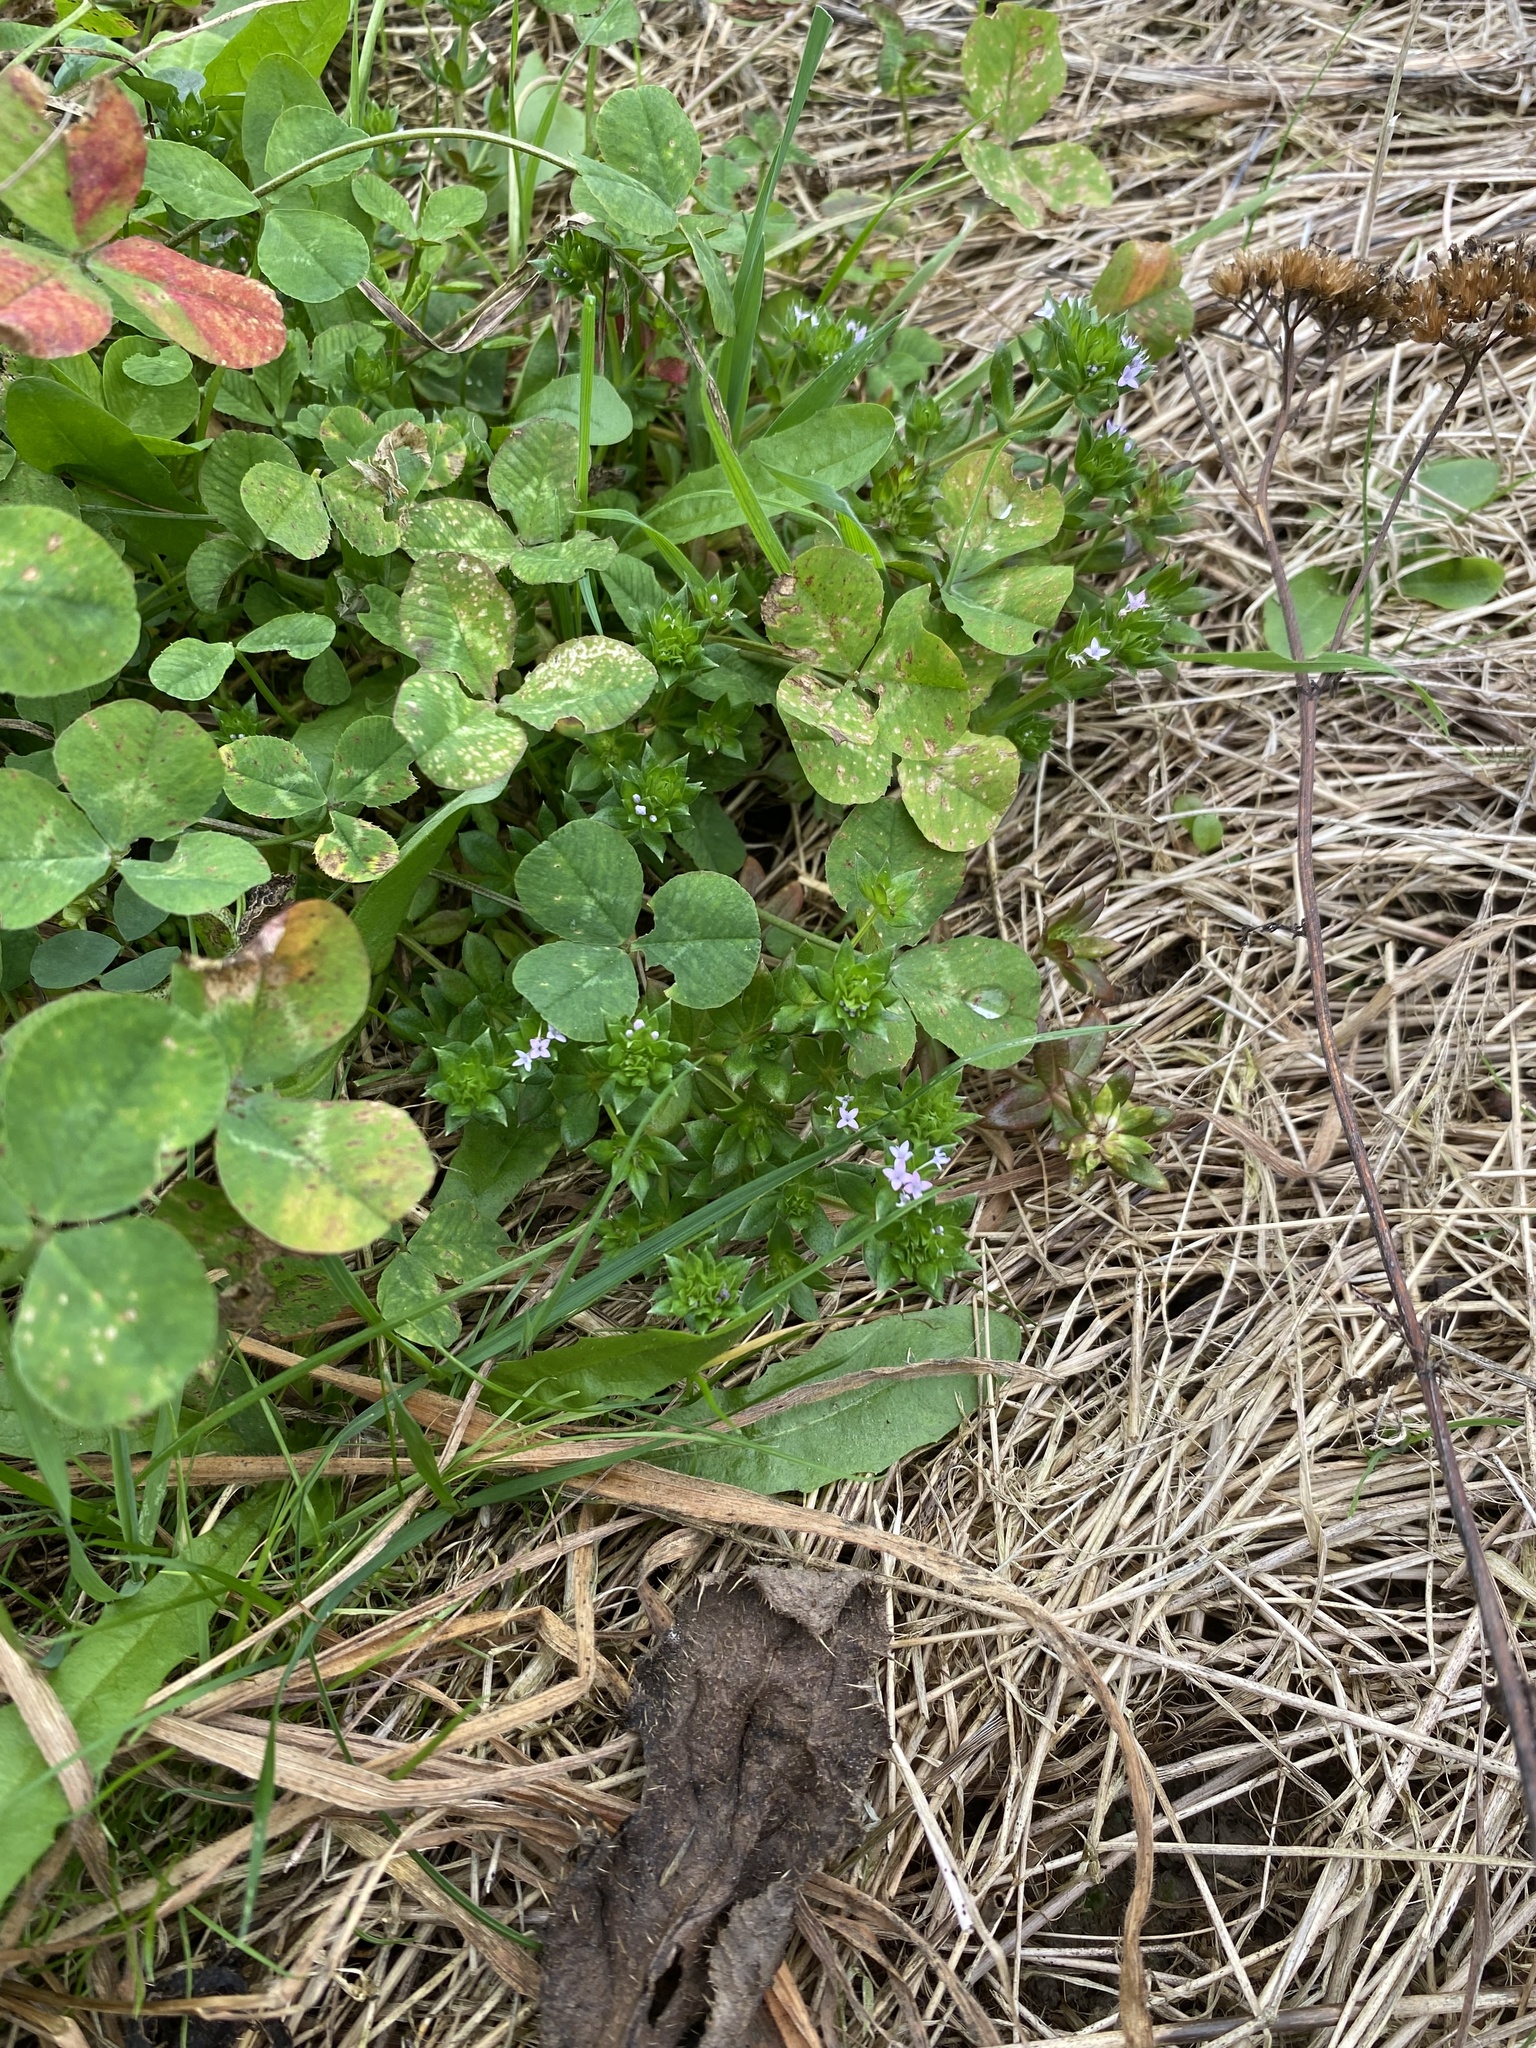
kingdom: Plantae
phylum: Tracheophyta
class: Magnoliopsida
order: Gentianales
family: Rubiaceae
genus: Sherardia
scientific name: Sherardia arvensis
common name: Field madder
